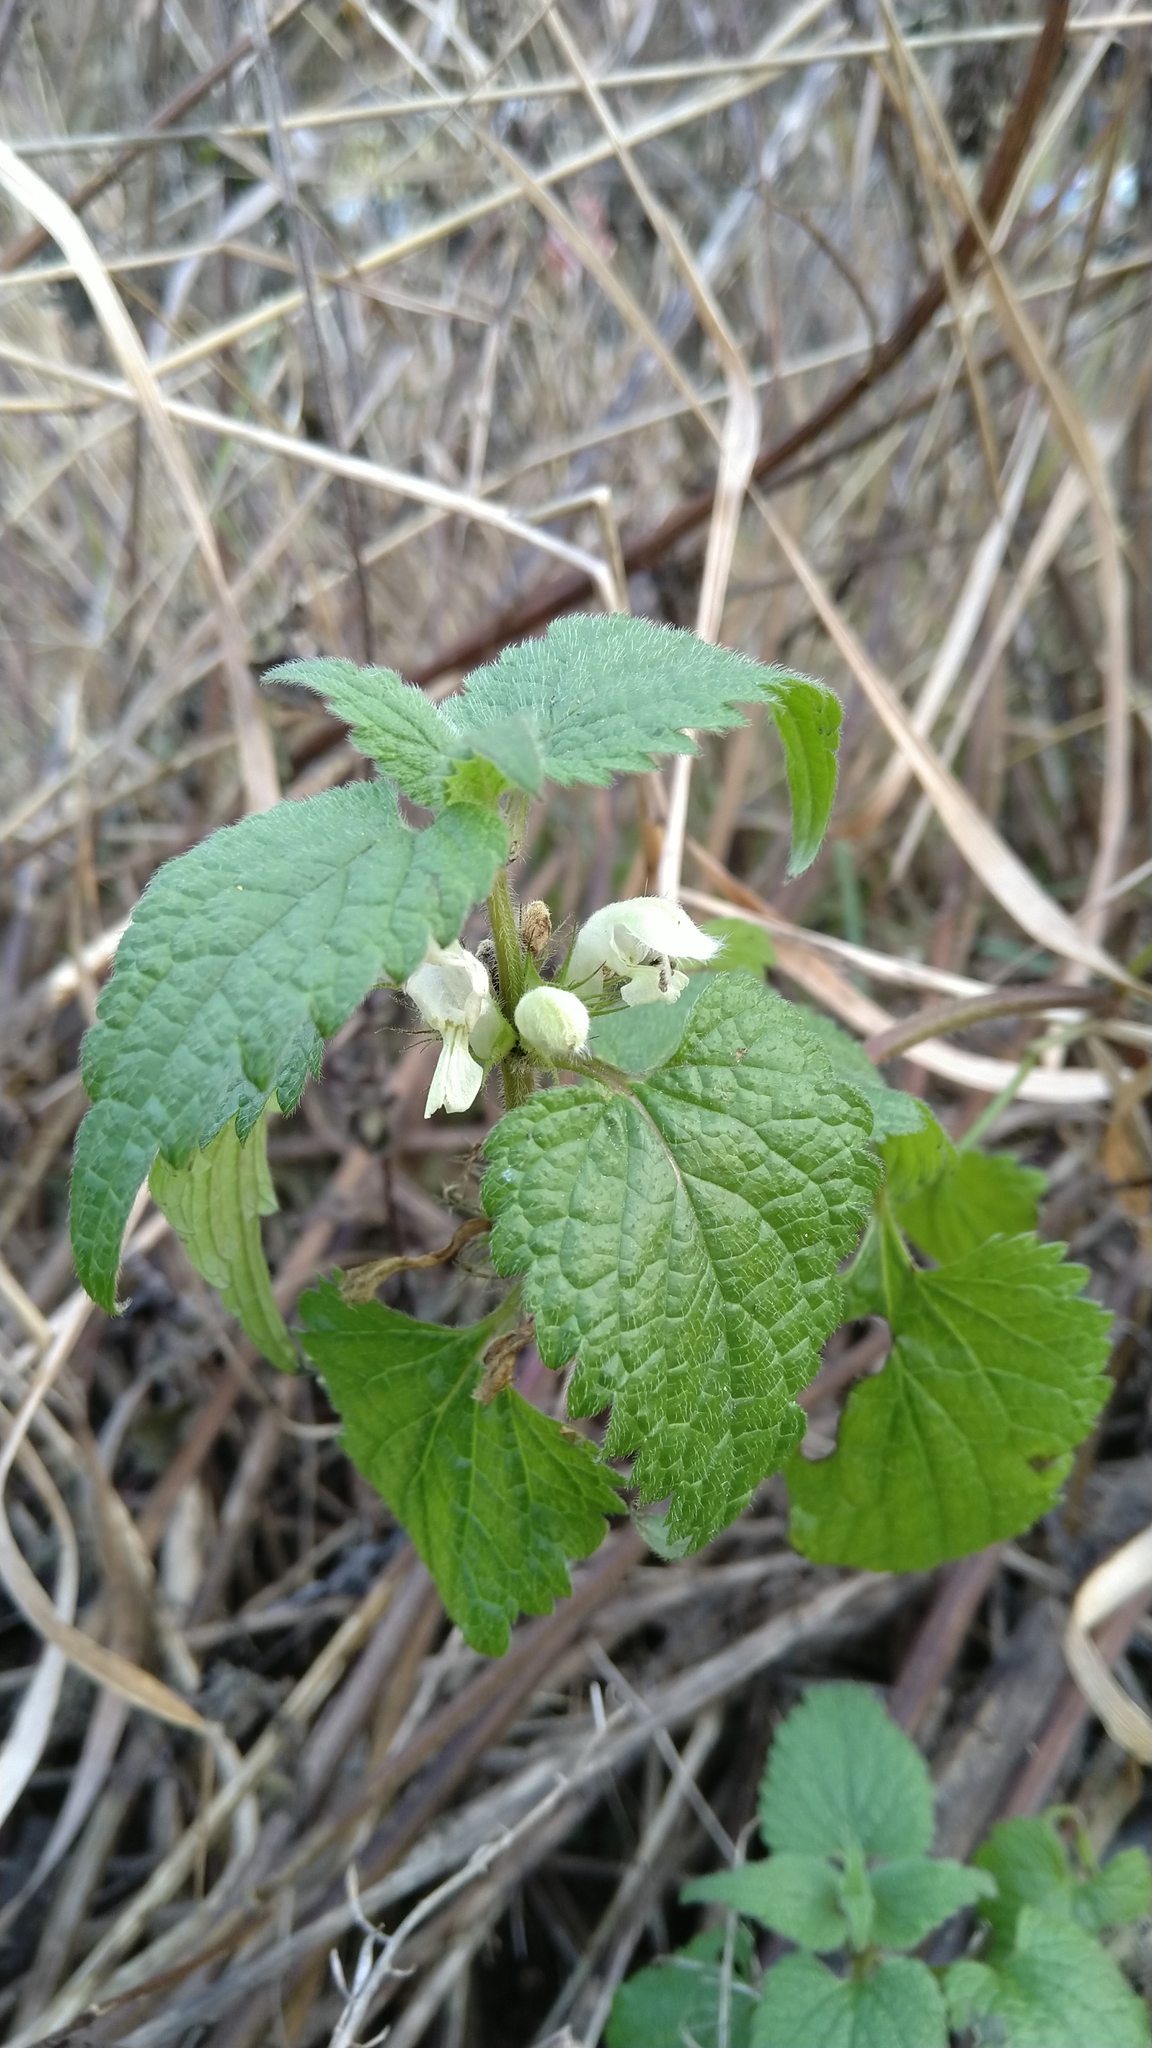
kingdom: Plantae
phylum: Tracheophyta
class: Magnoliopsida
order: Lamiales
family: Lamiaceae
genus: Lamium
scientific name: Lamium album
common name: White dead-nettle
